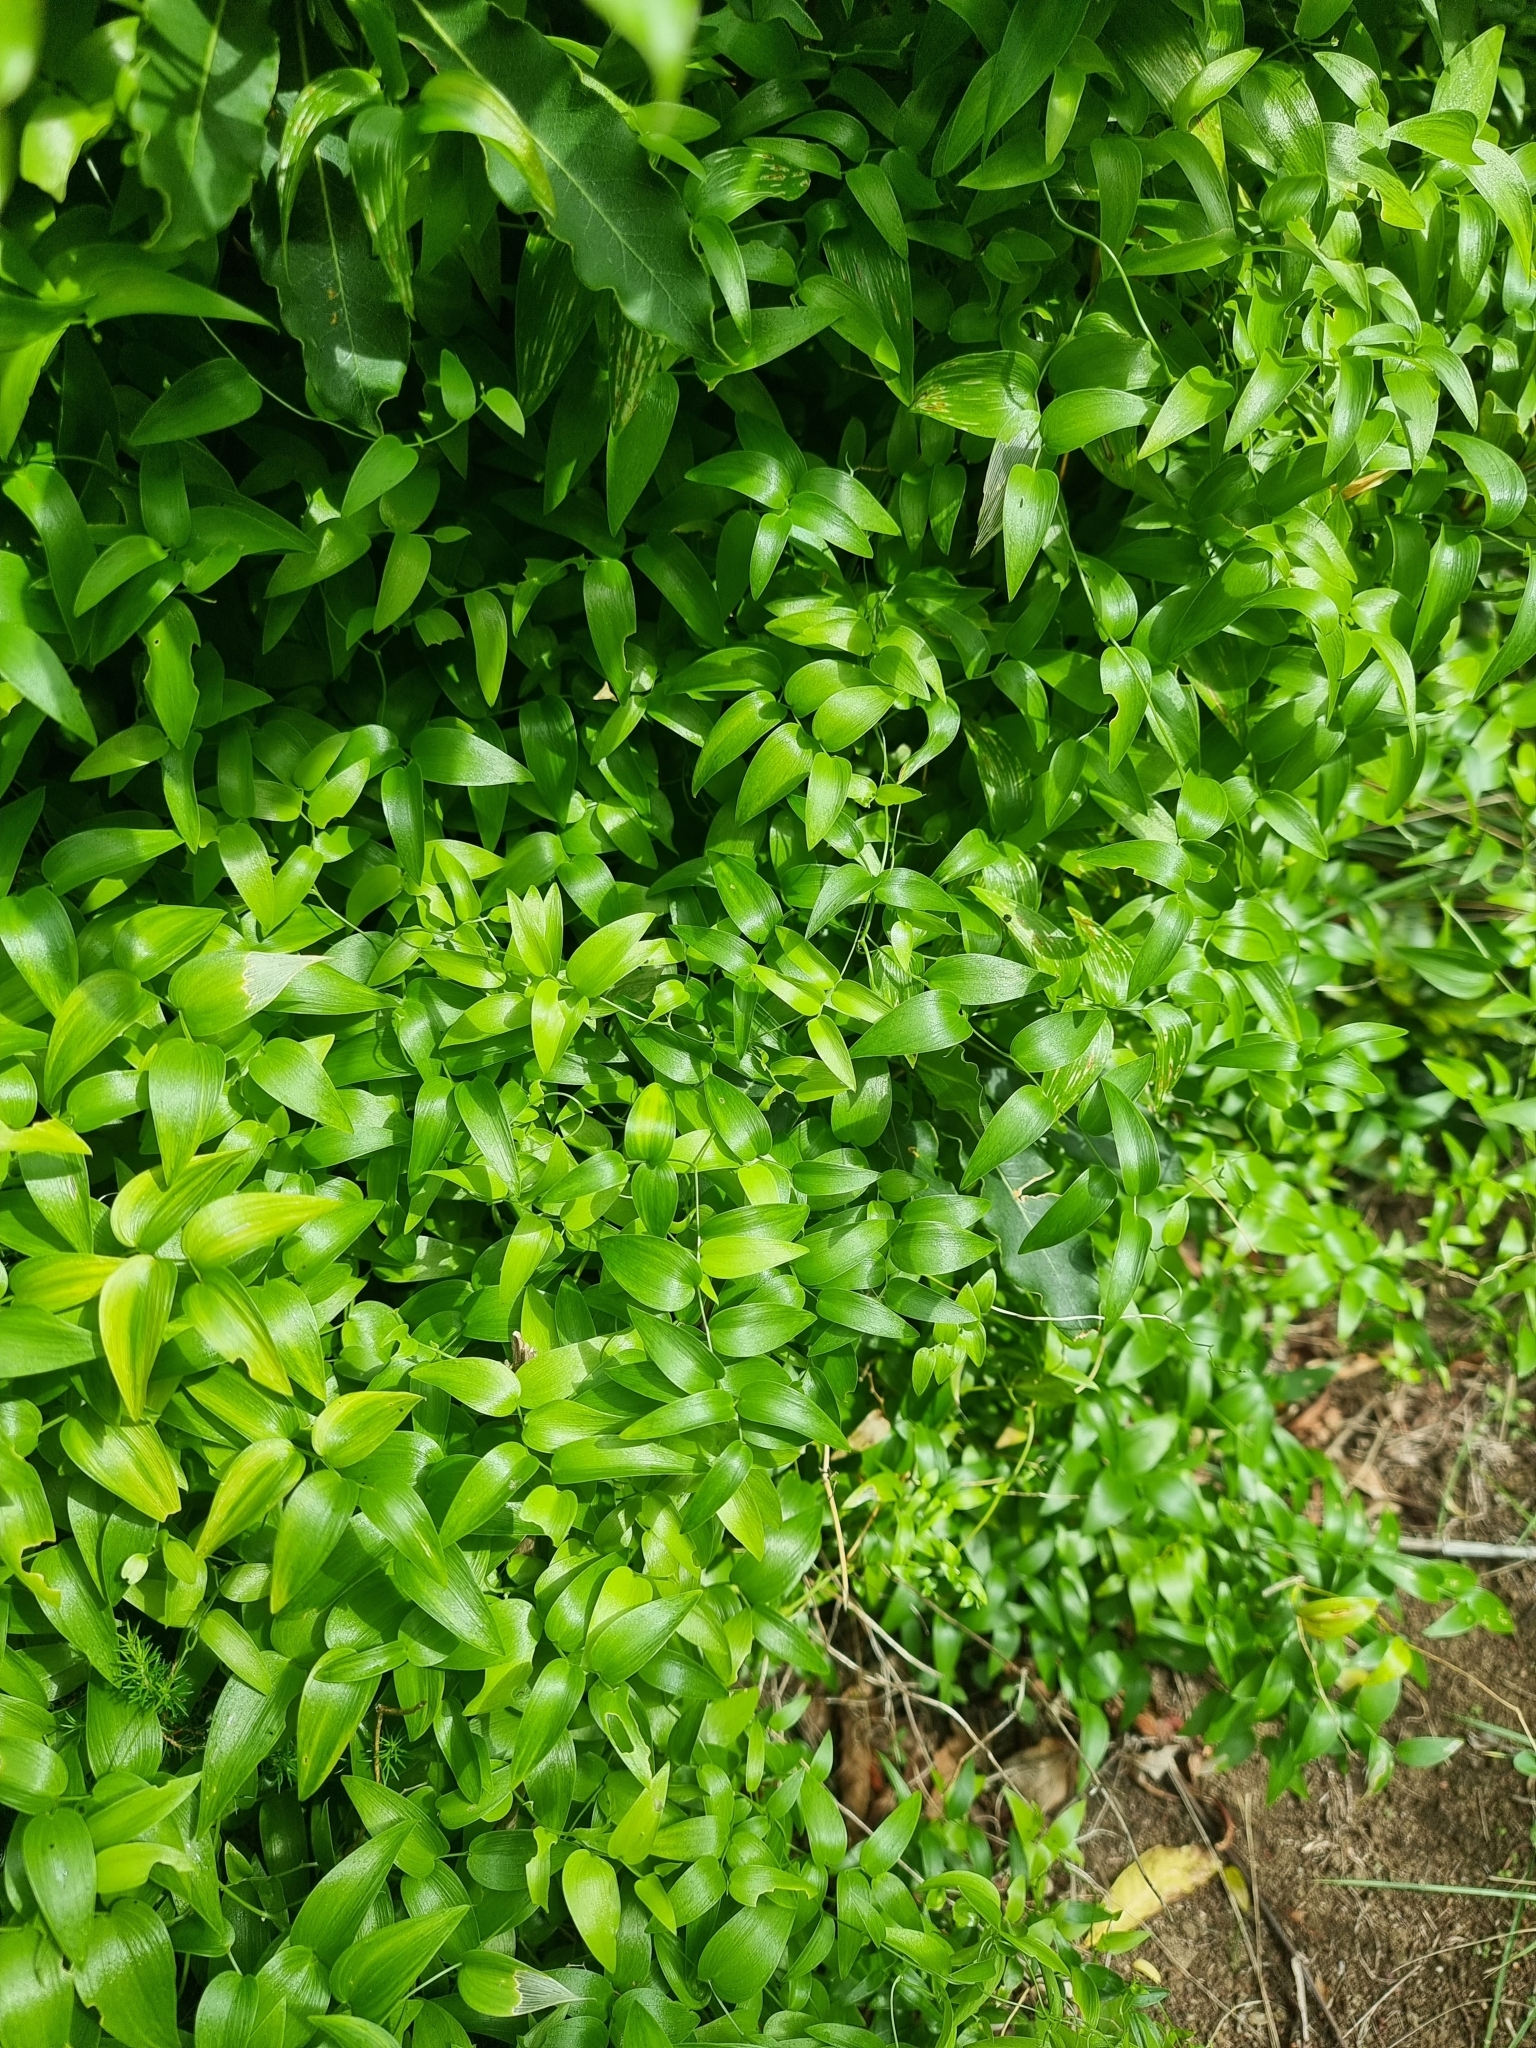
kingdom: Plantae
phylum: Tracheophyta
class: Liliopsida
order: Asparagales
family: Asparagaceae
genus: Asparagus
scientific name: Asparagus asparagoides
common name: African asparagus fern
